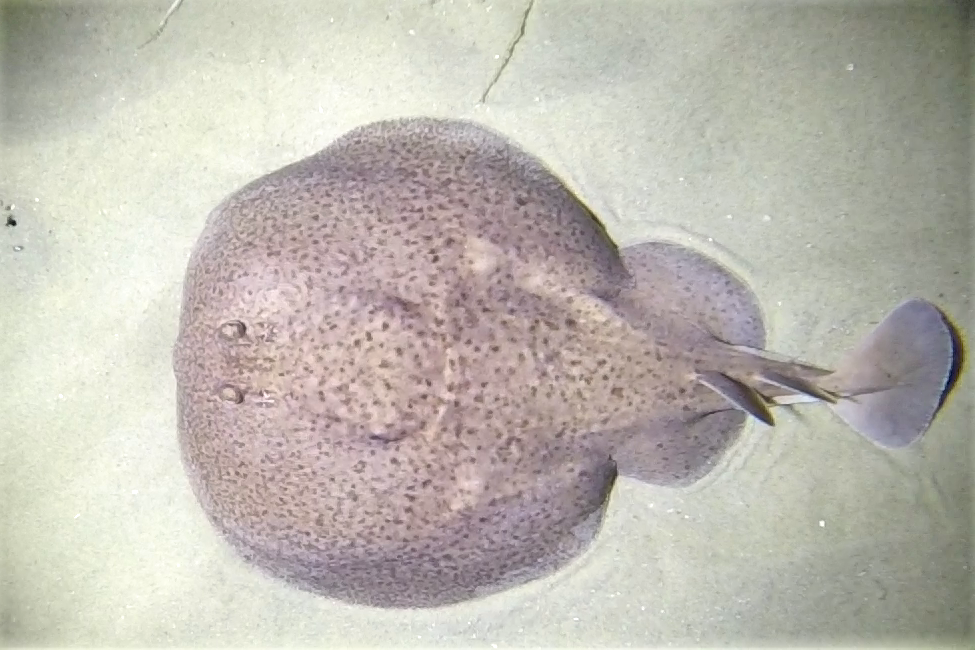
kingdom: Animalia
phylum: Chordata
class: Elasmobranchii
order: Torpediniformes
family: Torpedinidae
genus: Torpedo
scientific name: Torpedo marmorata
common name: Marbled electric ray
